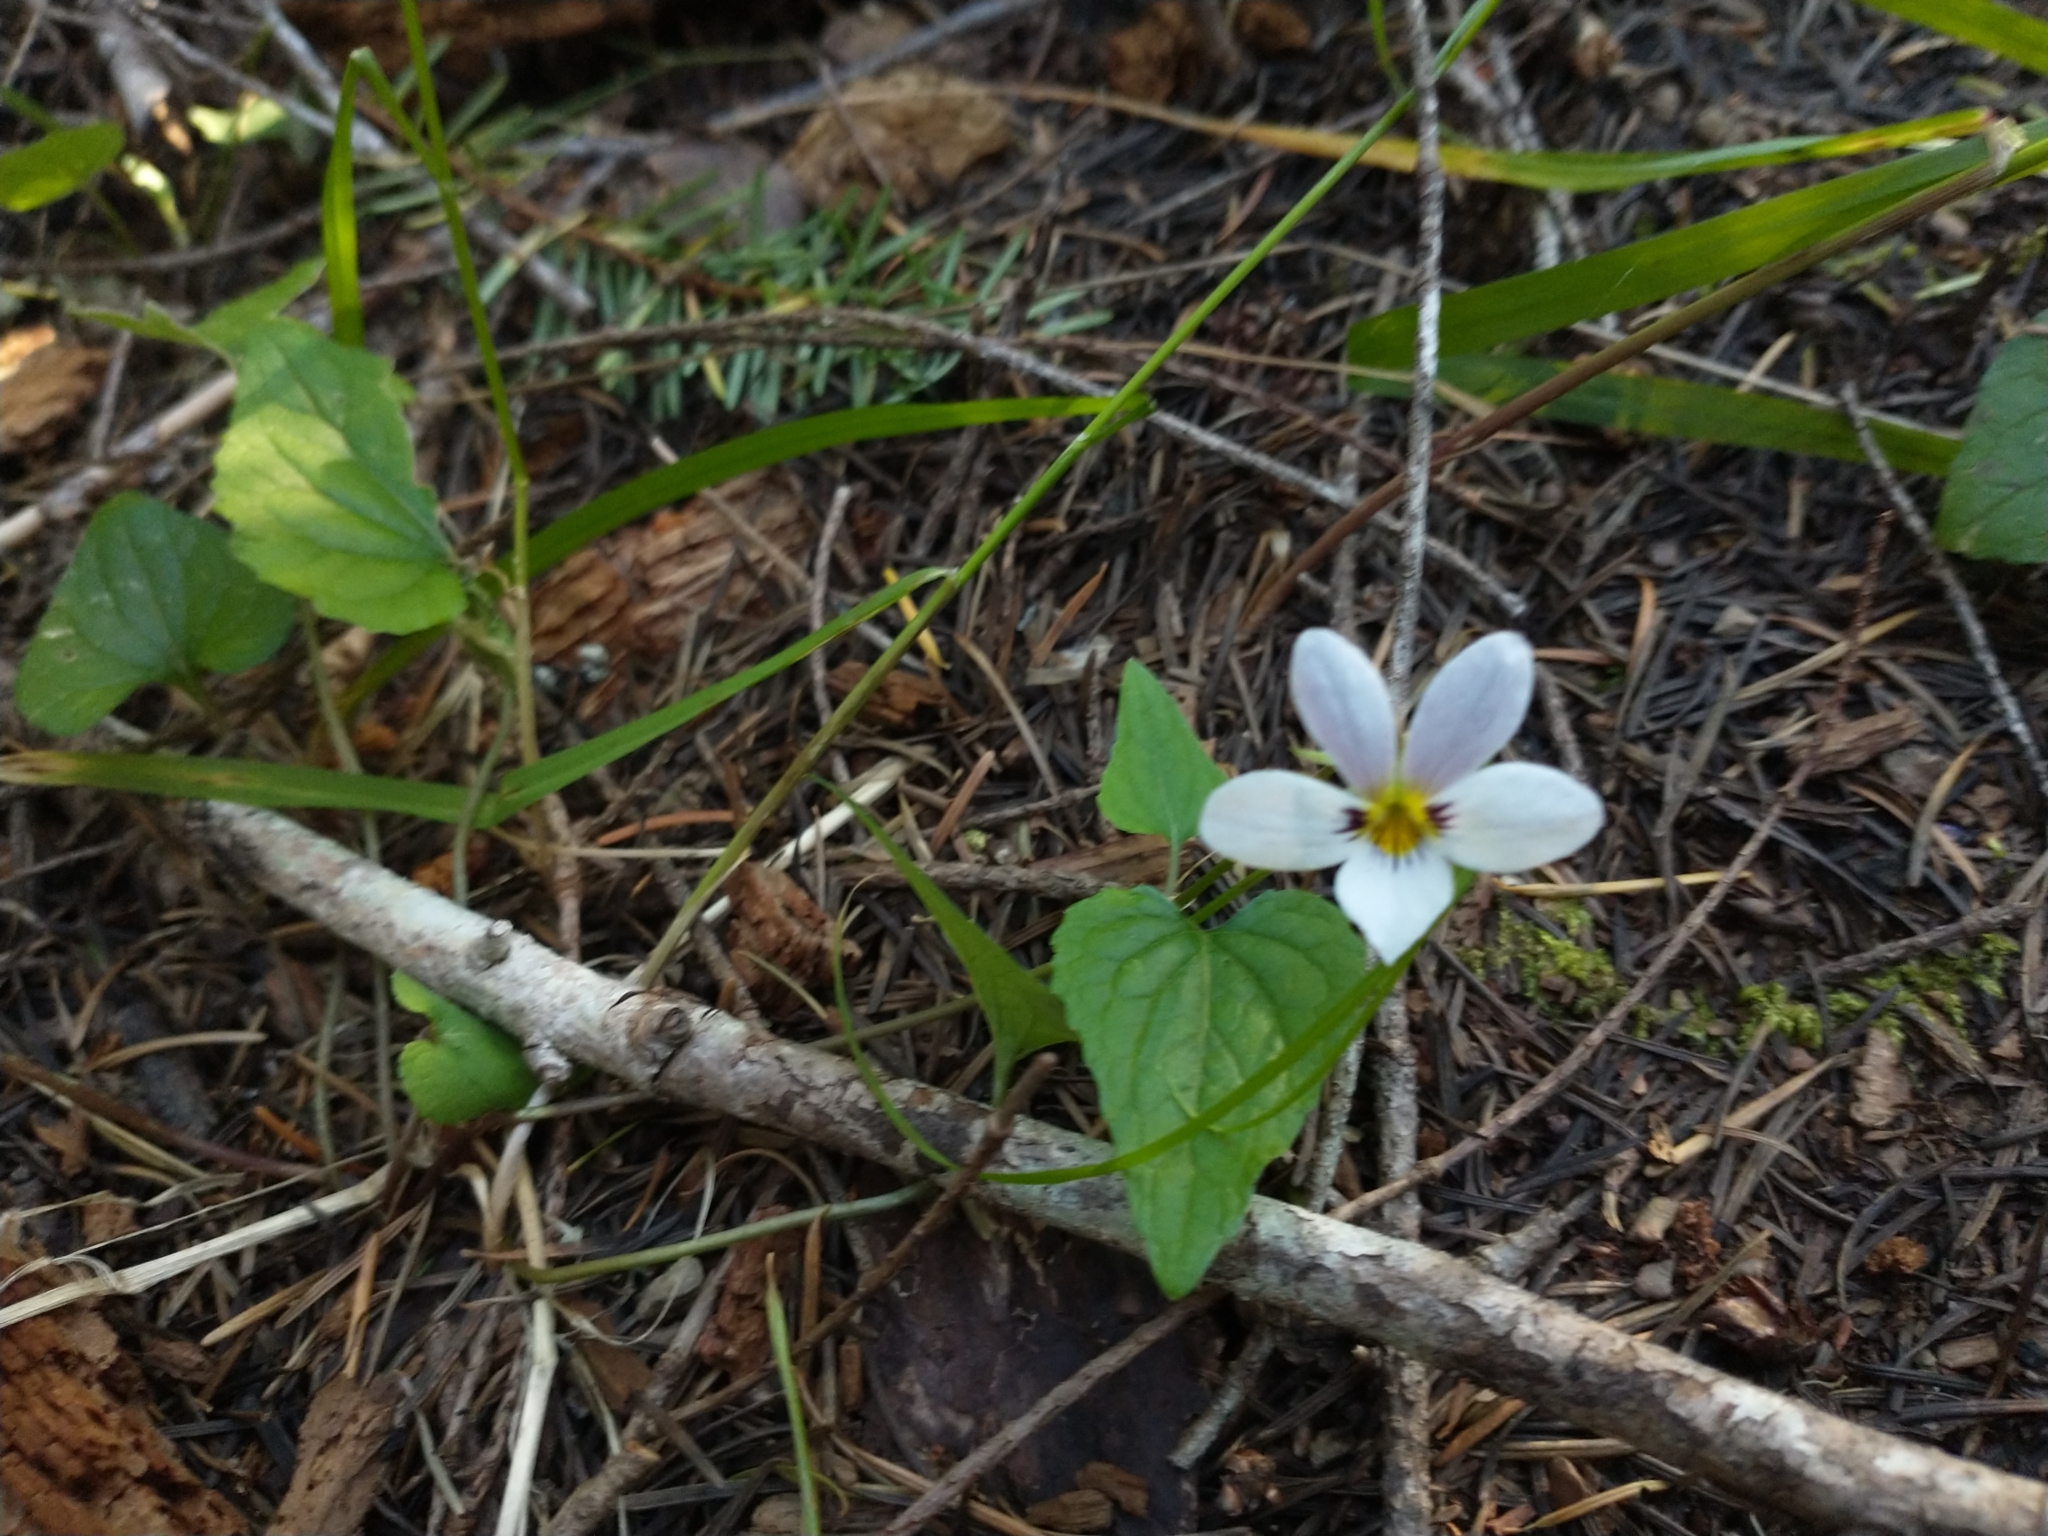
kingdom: Plantae
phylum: Tracheophyta
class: Magnoliopsida
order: Malpighiales
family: Violaceae
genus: Viola
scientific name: Viola ocellata
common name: Western heart's ease
